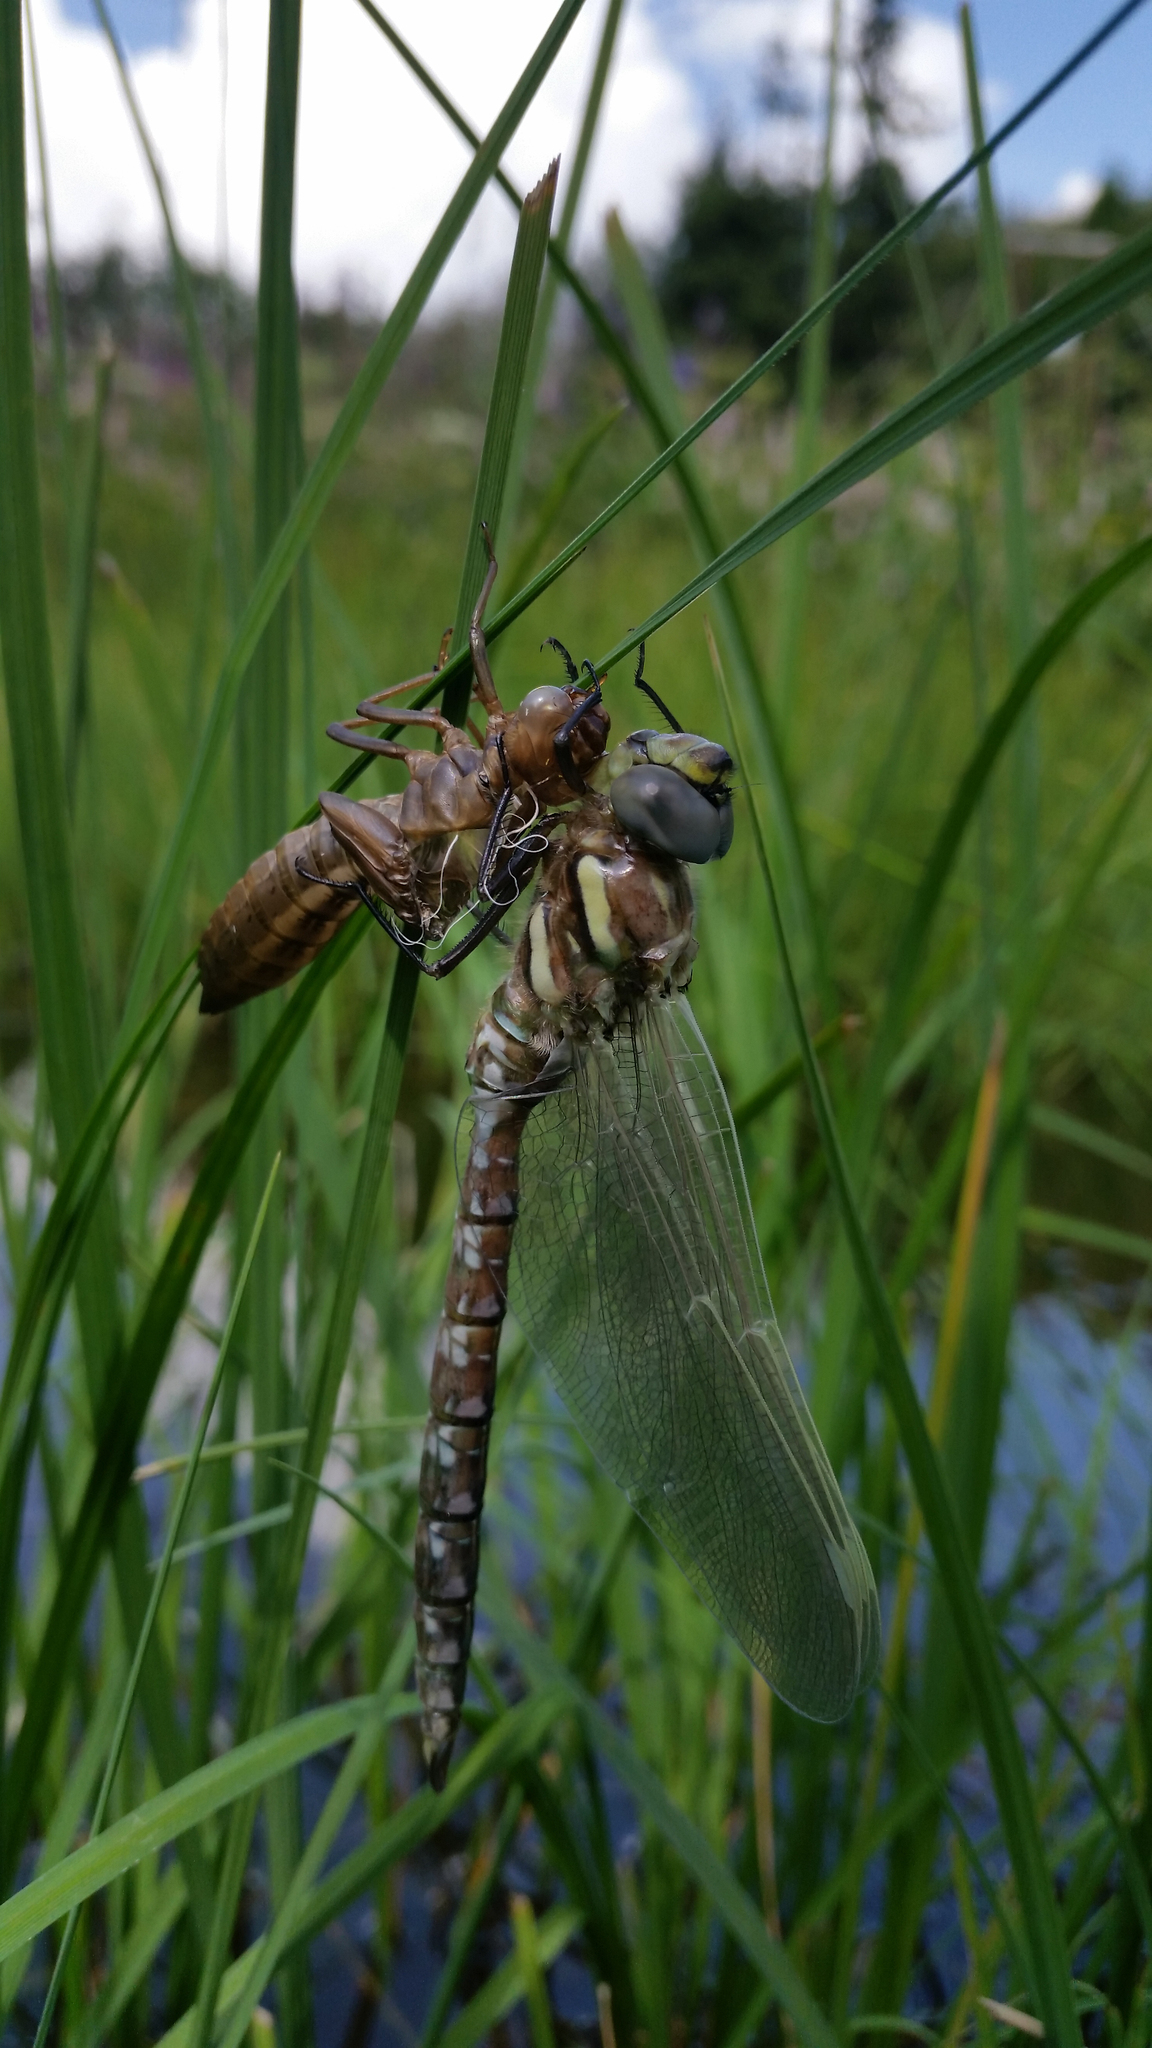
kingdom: Animalia
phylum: Arthropoda
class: Insecta
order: Odonata
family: Aeshnidae
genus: Aeshna
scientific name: Aeshna juncea
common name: Moorland hawker
